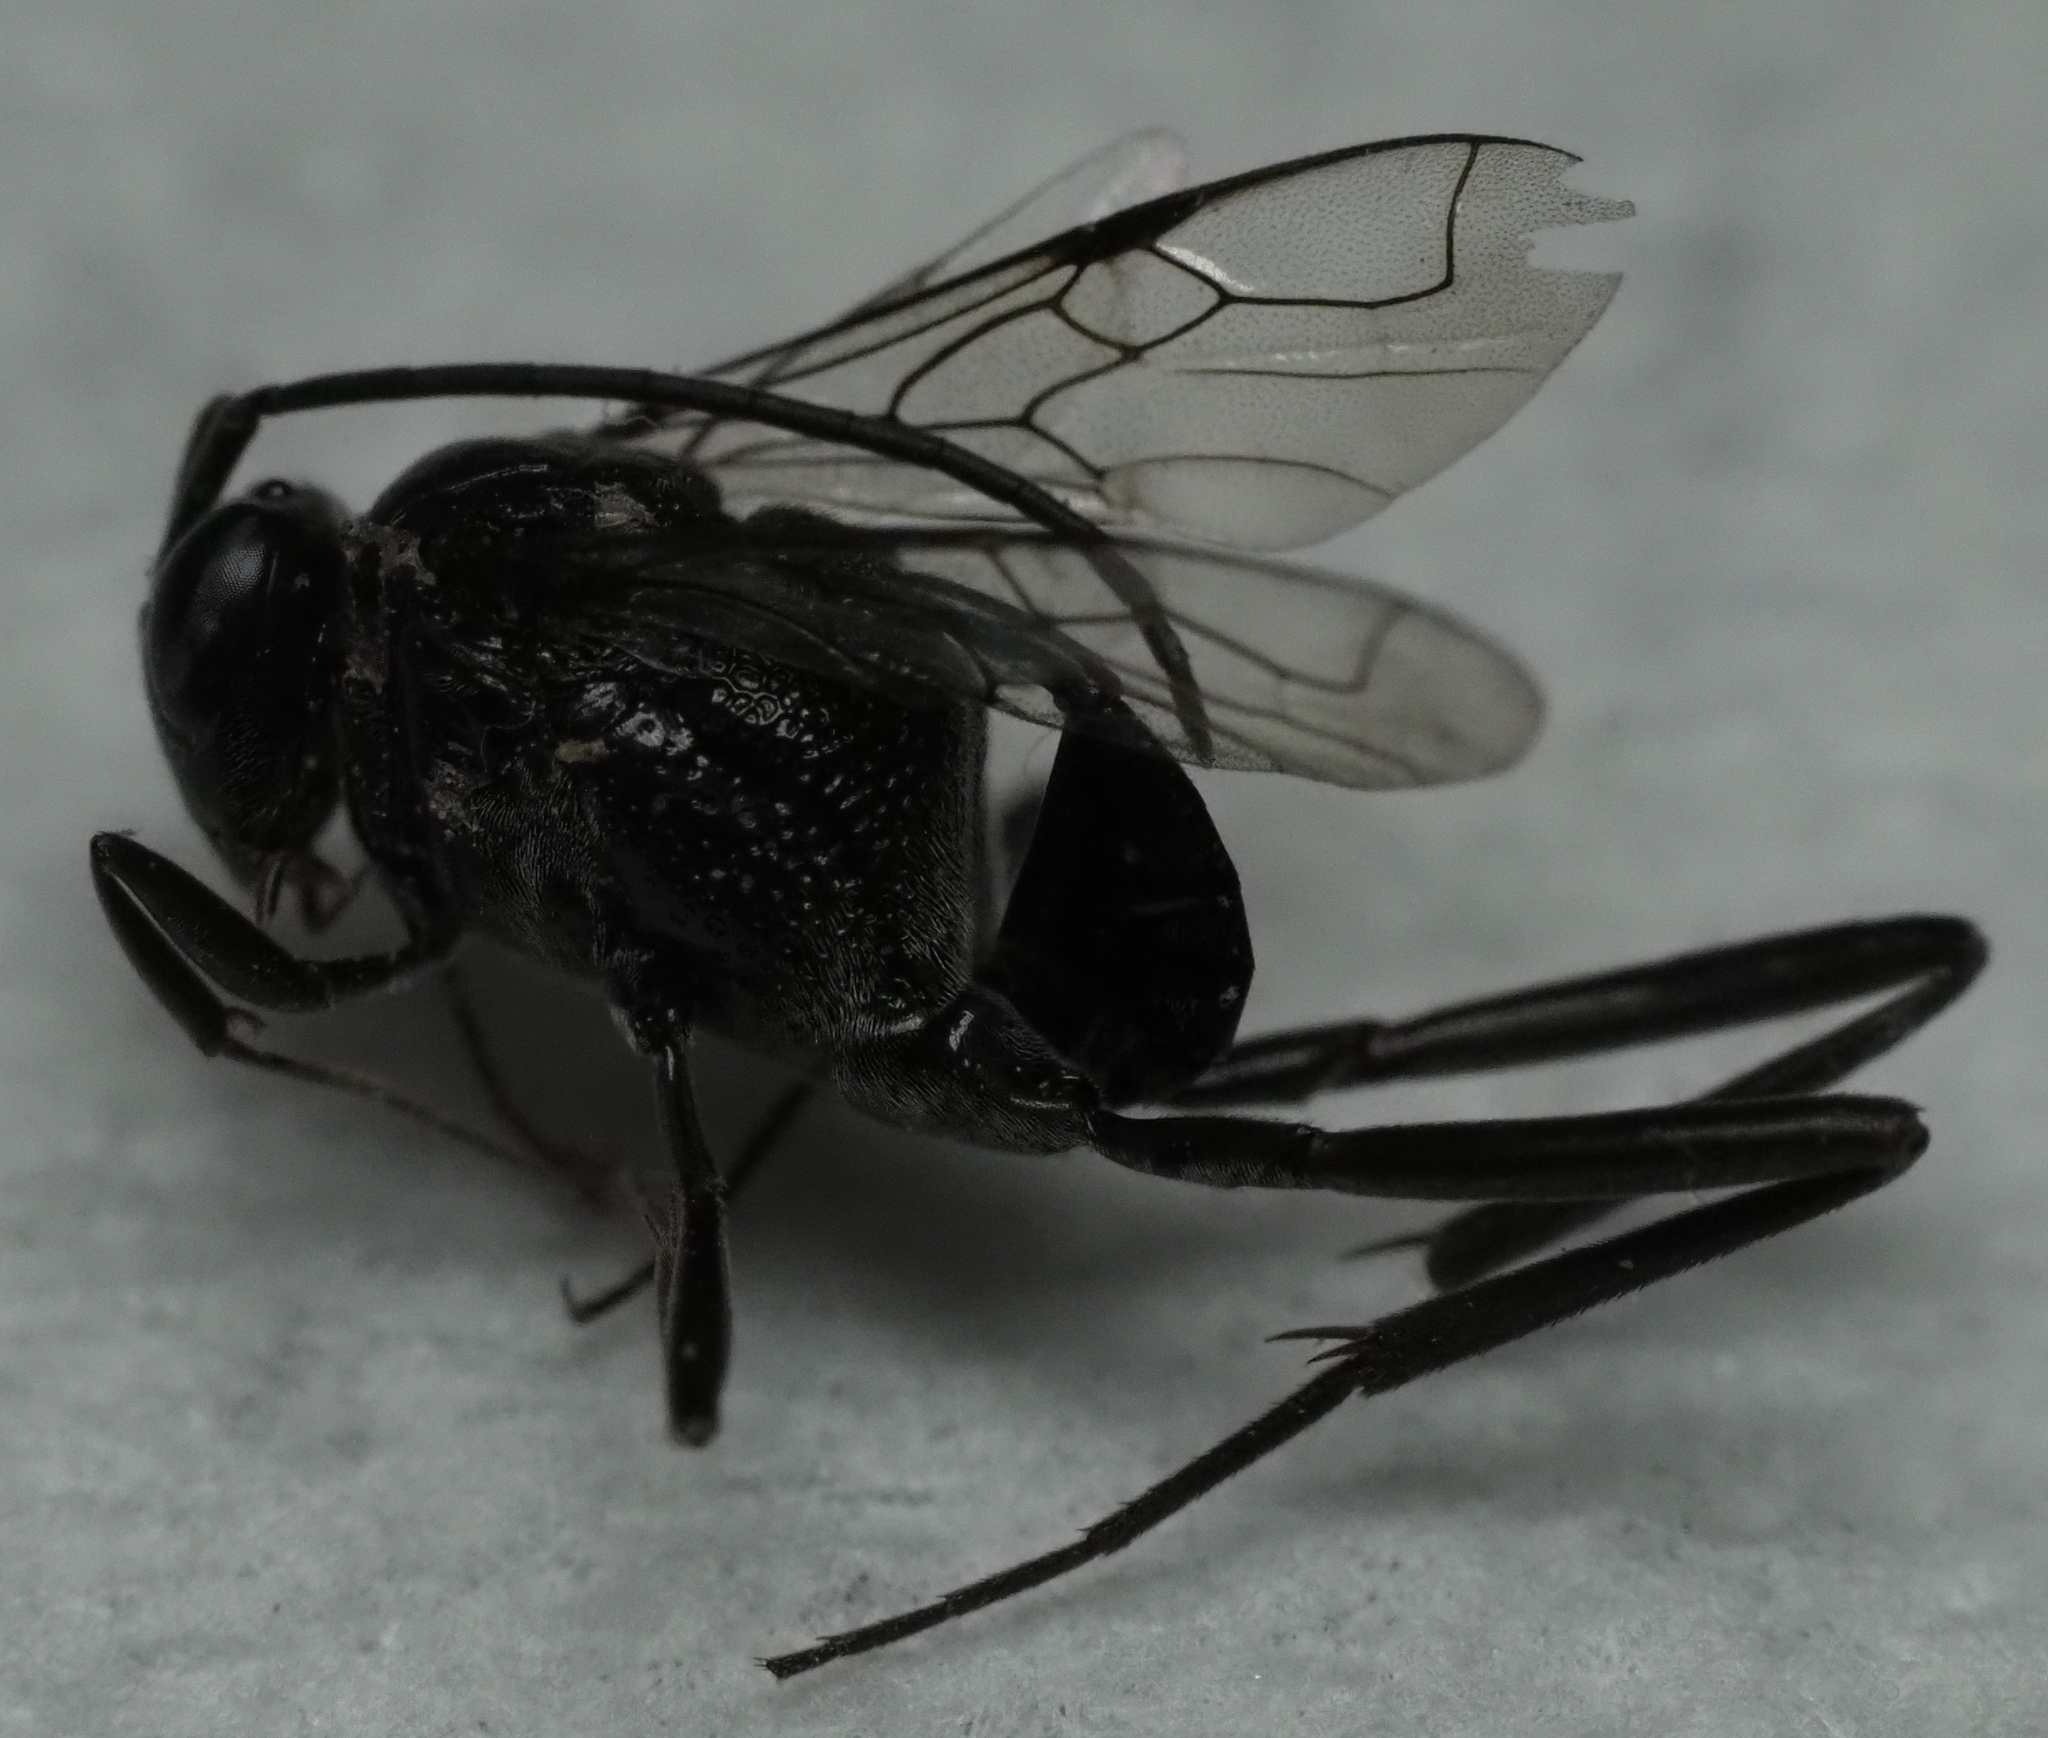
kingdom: Animalia
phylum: Arthropoda
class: Insecta
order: Hymenoptera
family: Evaniidae
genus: Evania
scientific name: Evania appendigaster
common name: Ensign wasp
